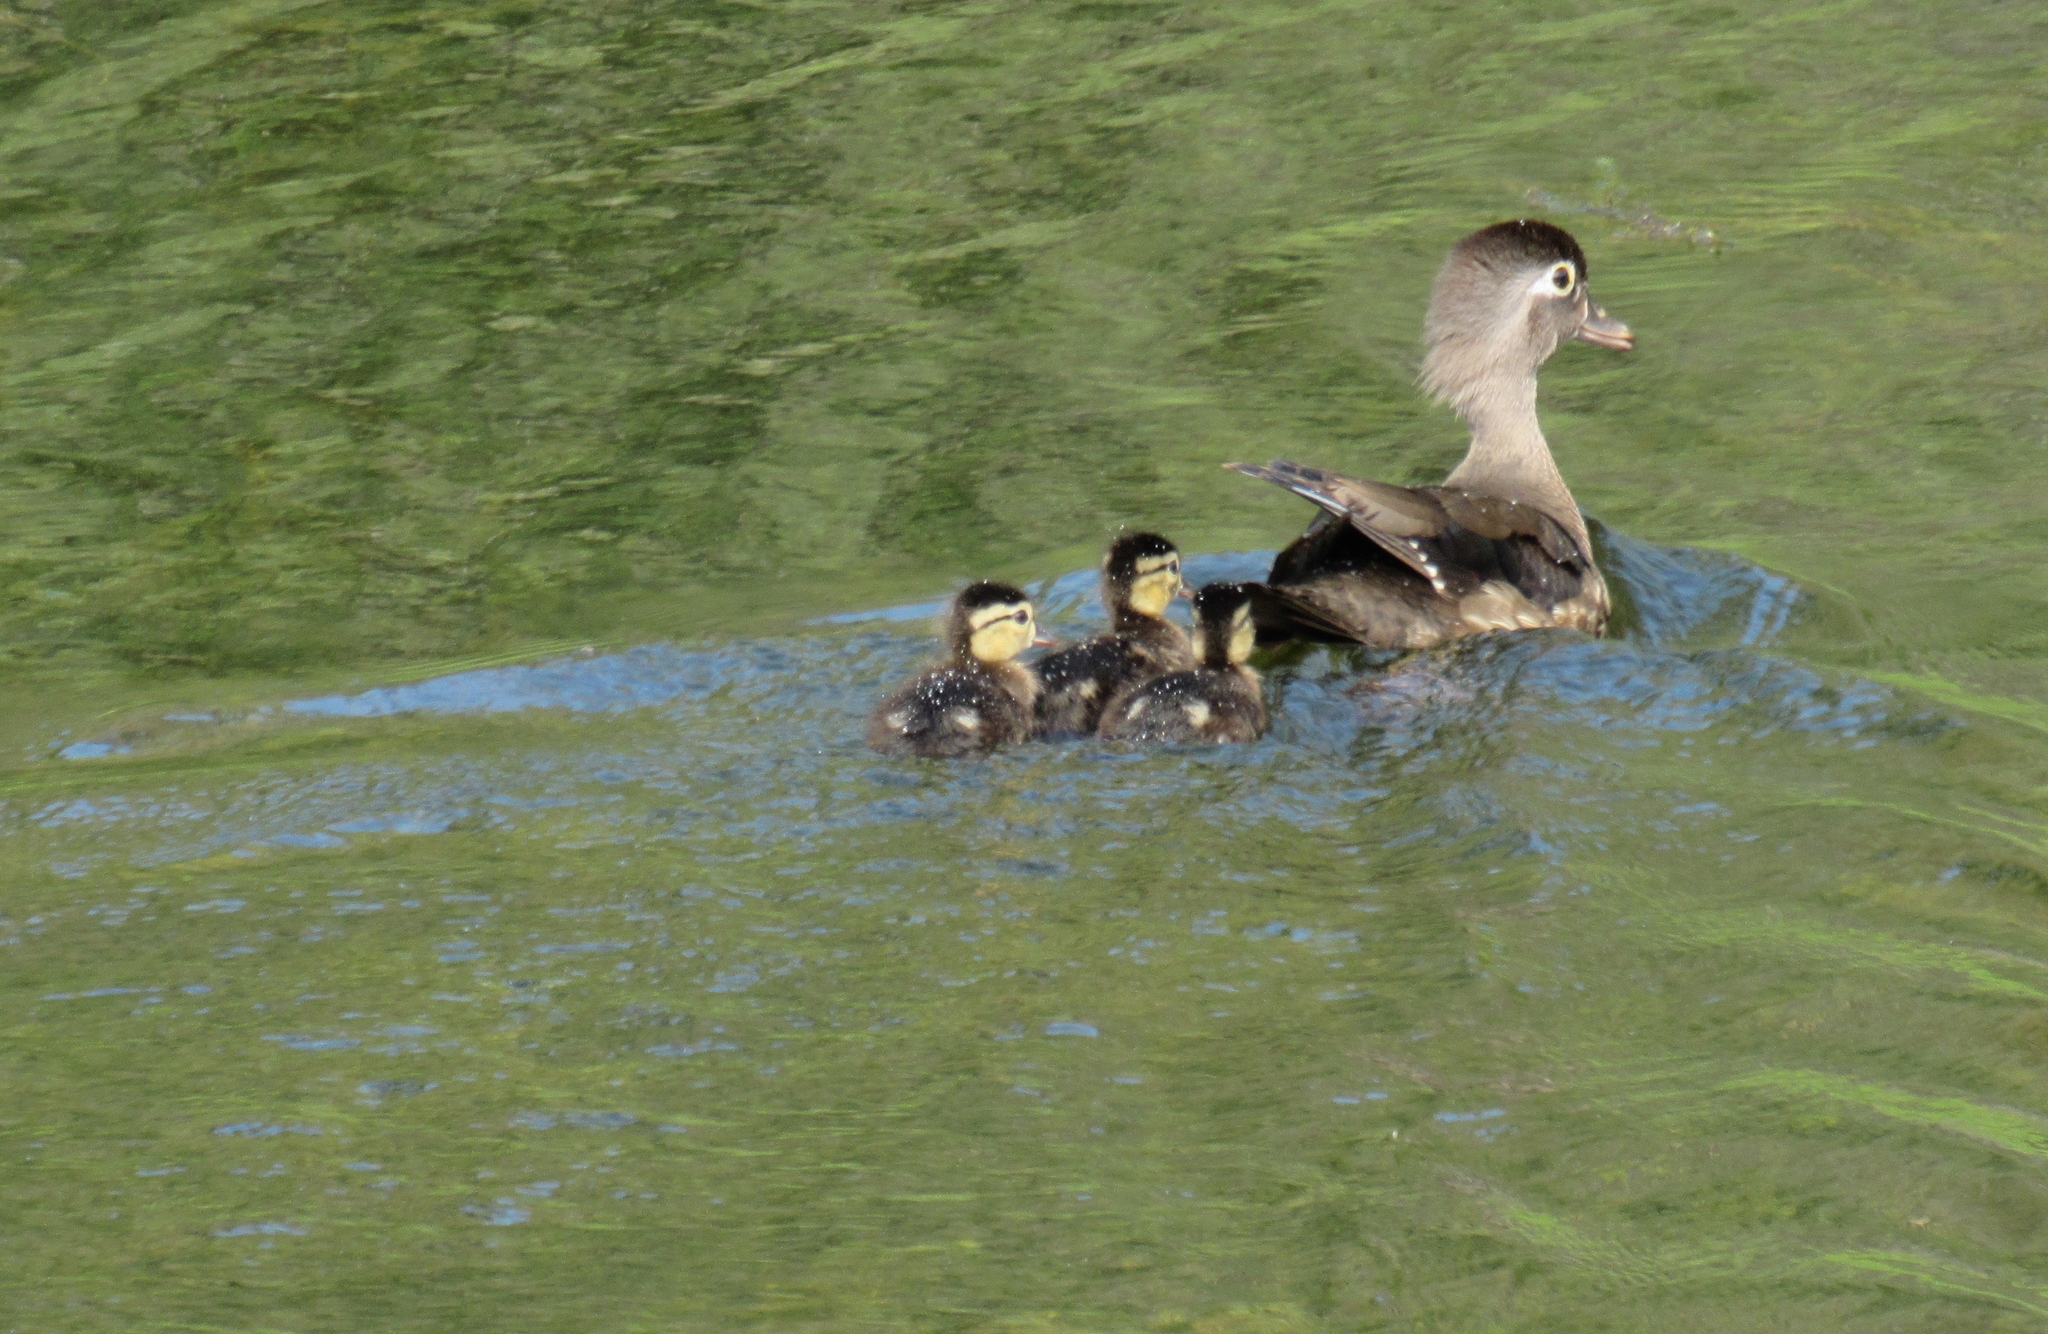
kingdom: Animalia
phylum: Chordata
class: Aves
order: Anseriformes
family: Anatidae
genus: Aix
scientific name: Aix sponsa
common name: Wood duck
